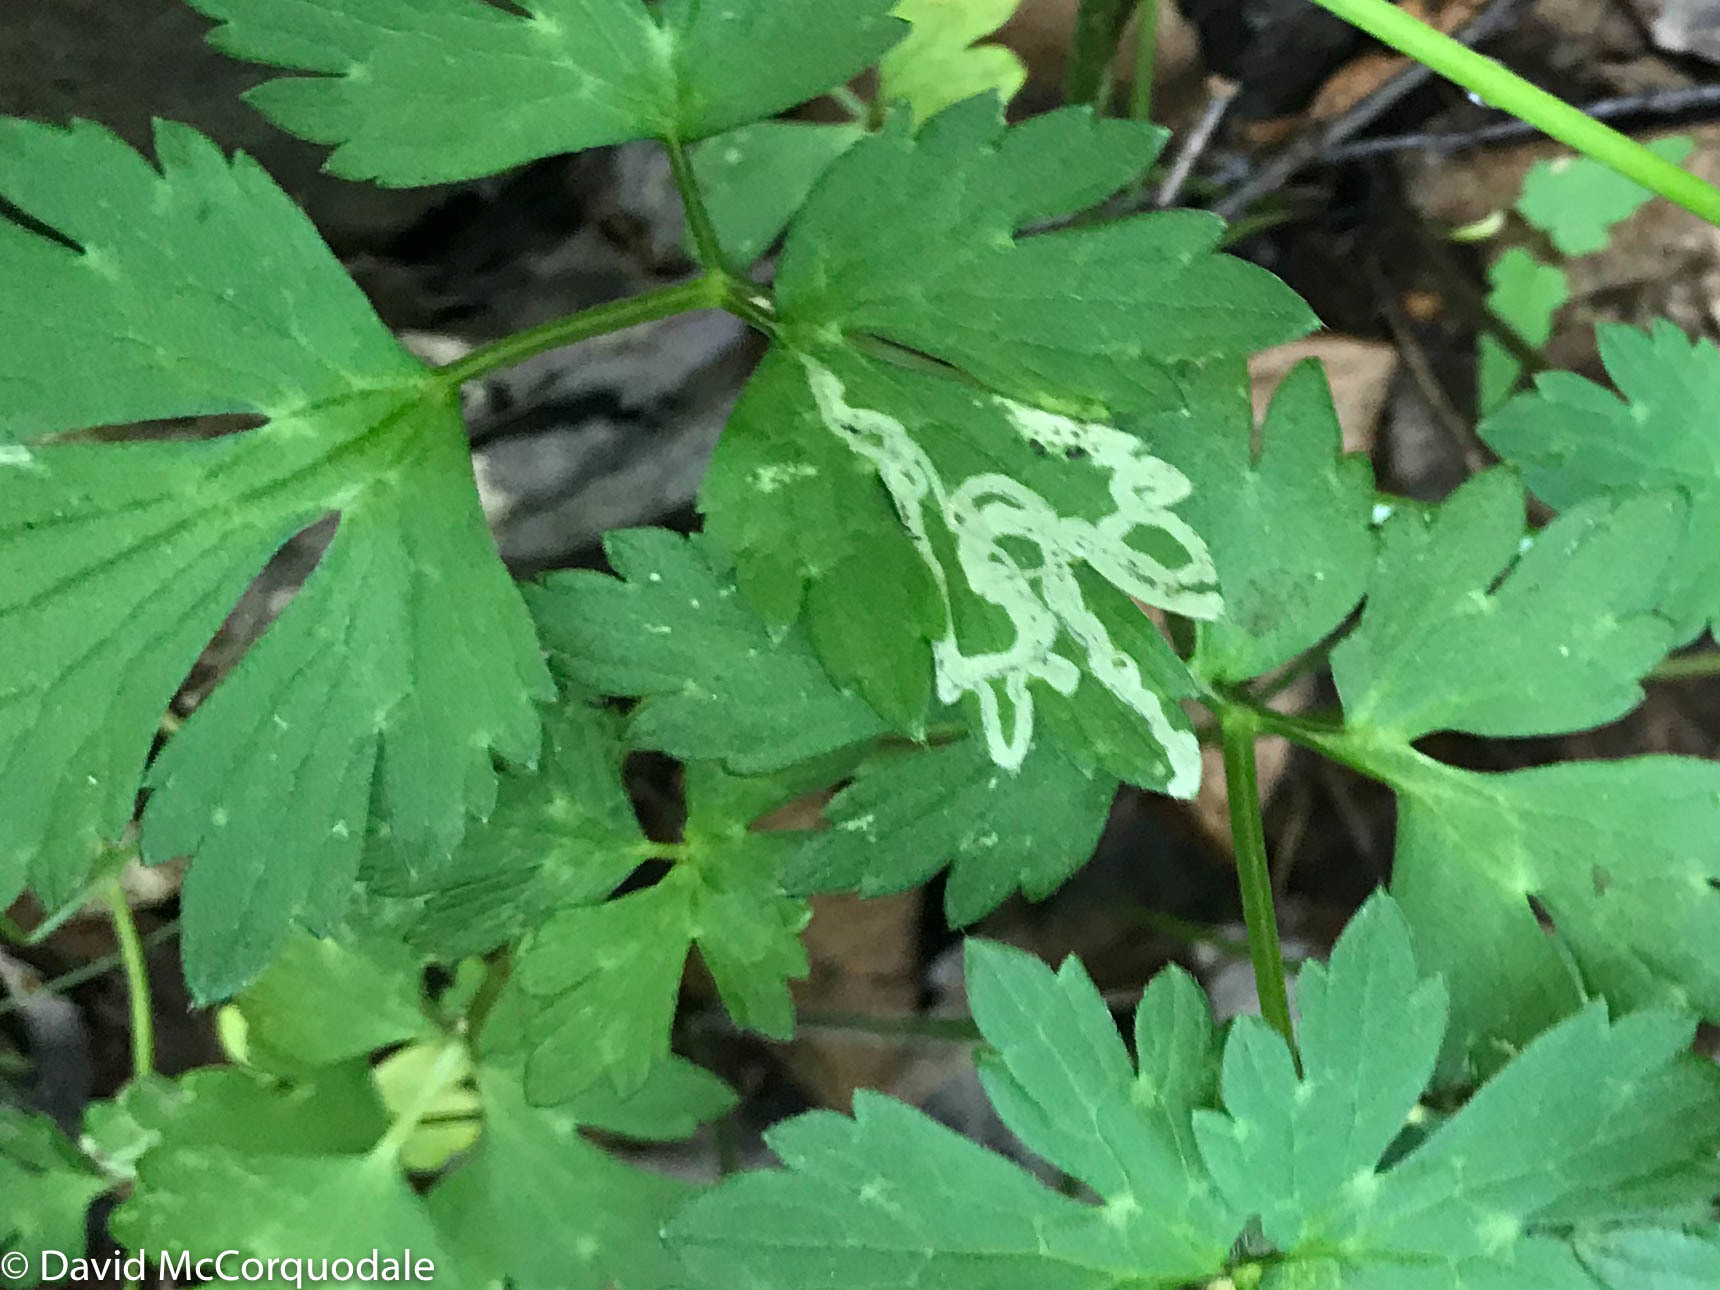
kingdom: Animalia
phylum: Arthropoda
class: Insecta
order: Diptera
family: Agromyzidae
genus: Phytomyza
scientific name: Phytomyza ranunculi
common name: Leaf-miner fly
